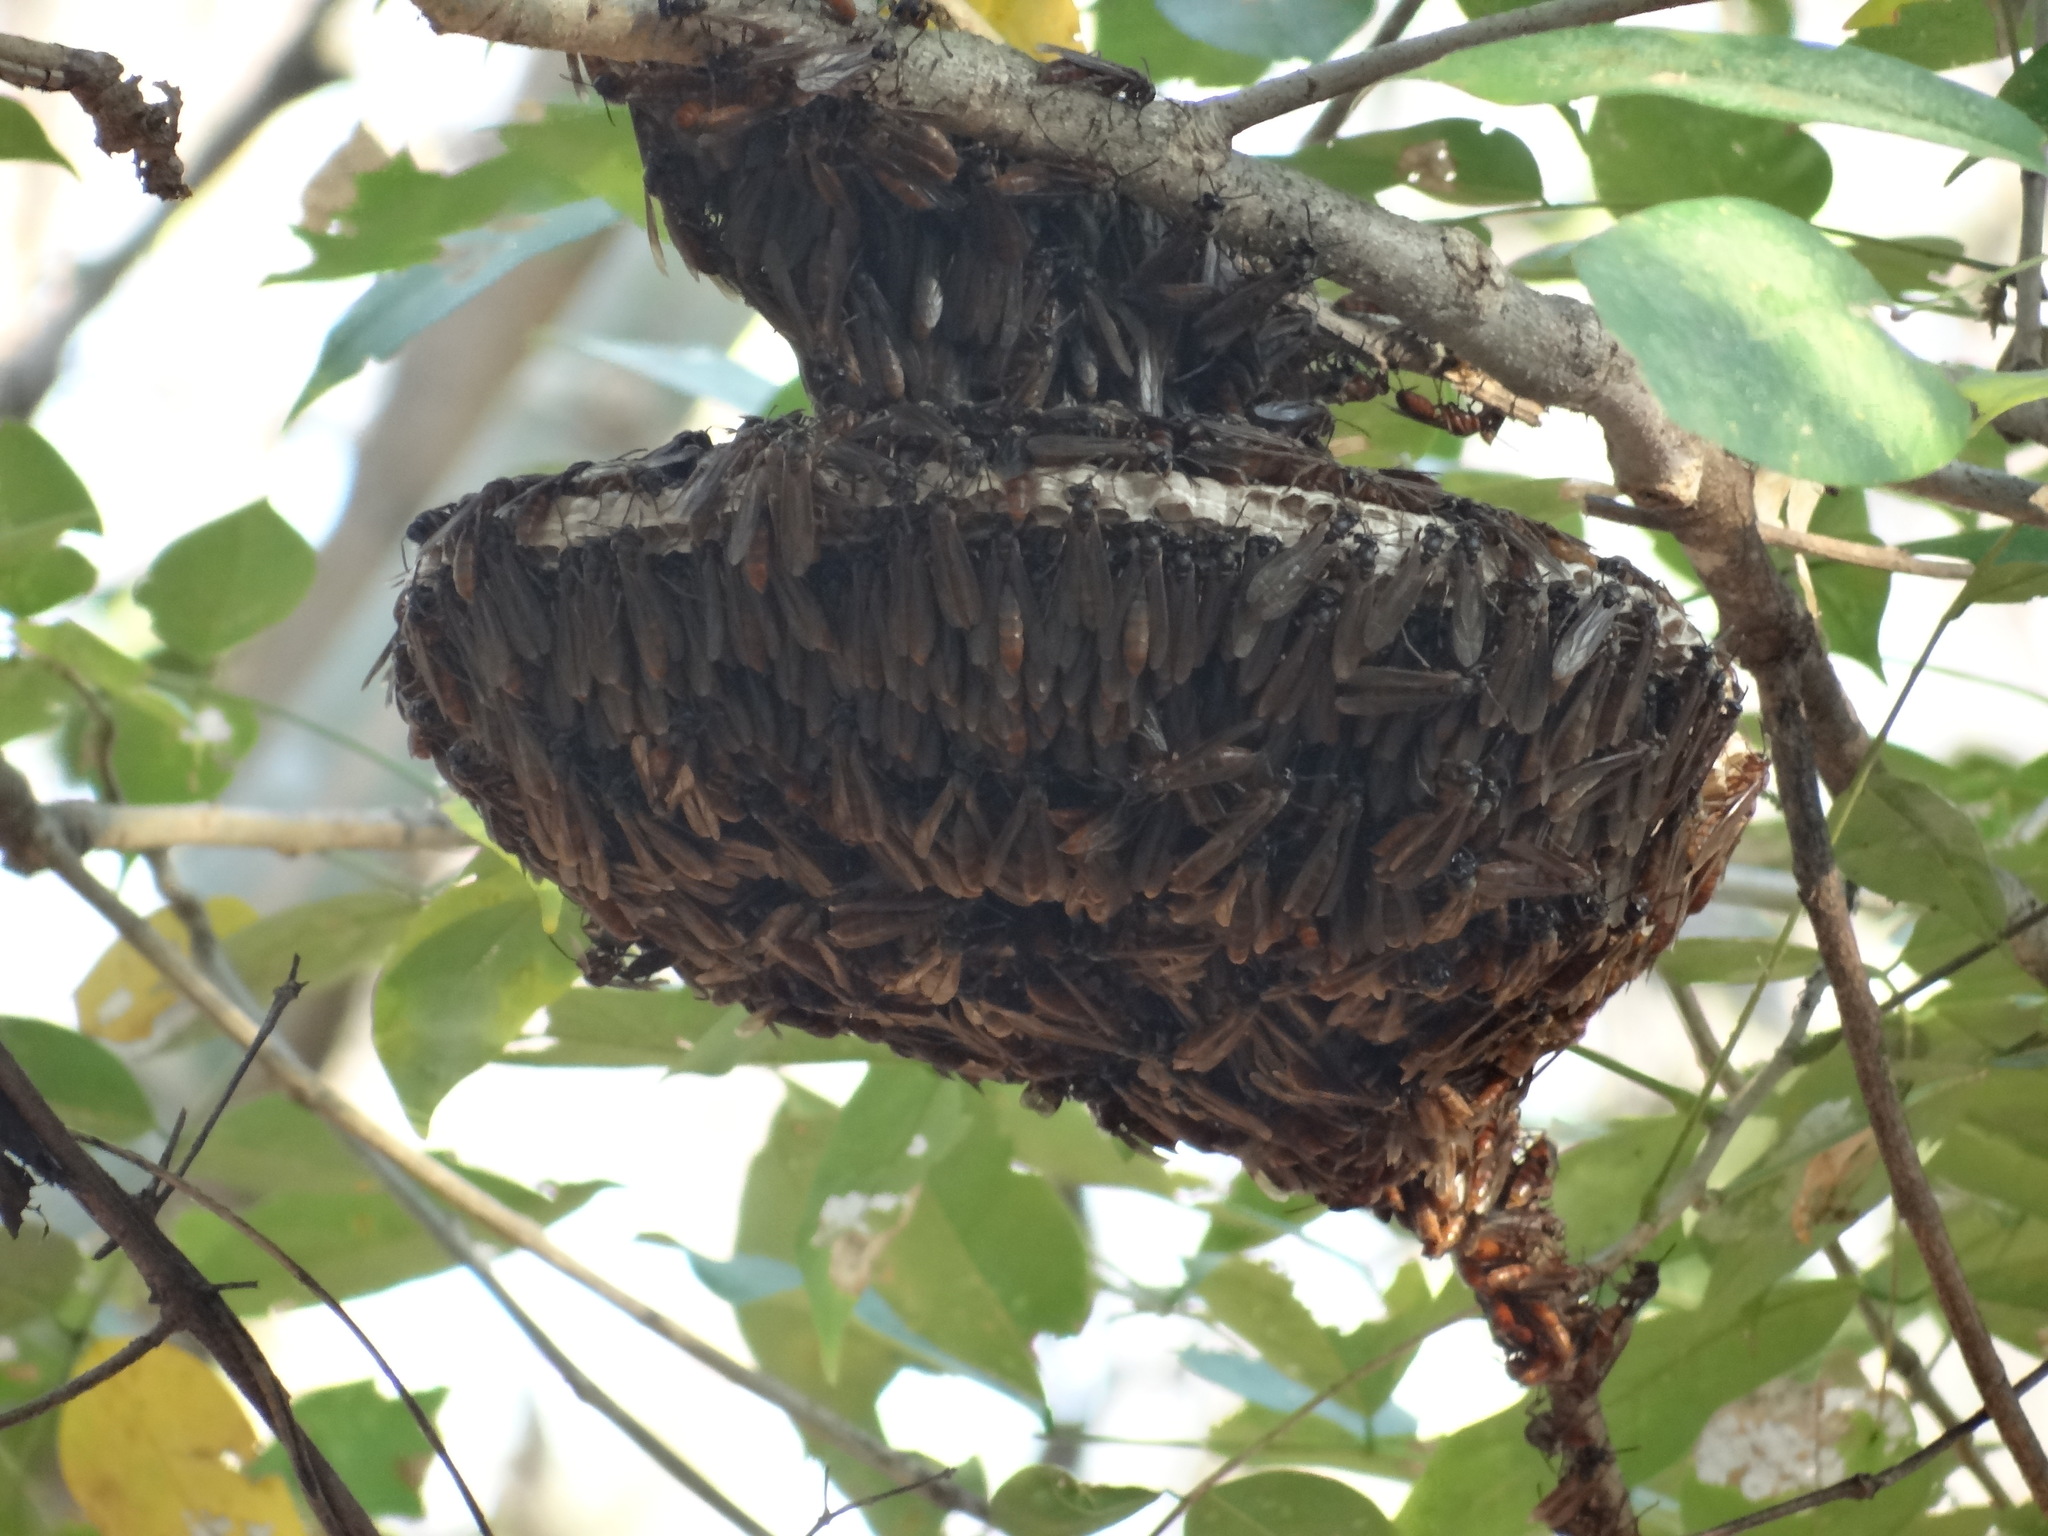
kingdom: Animalia
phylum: Arthropoda
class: Insecta
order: Hymenoptera
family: Vespidae
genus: Apoica
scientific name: Apoica thoracica
